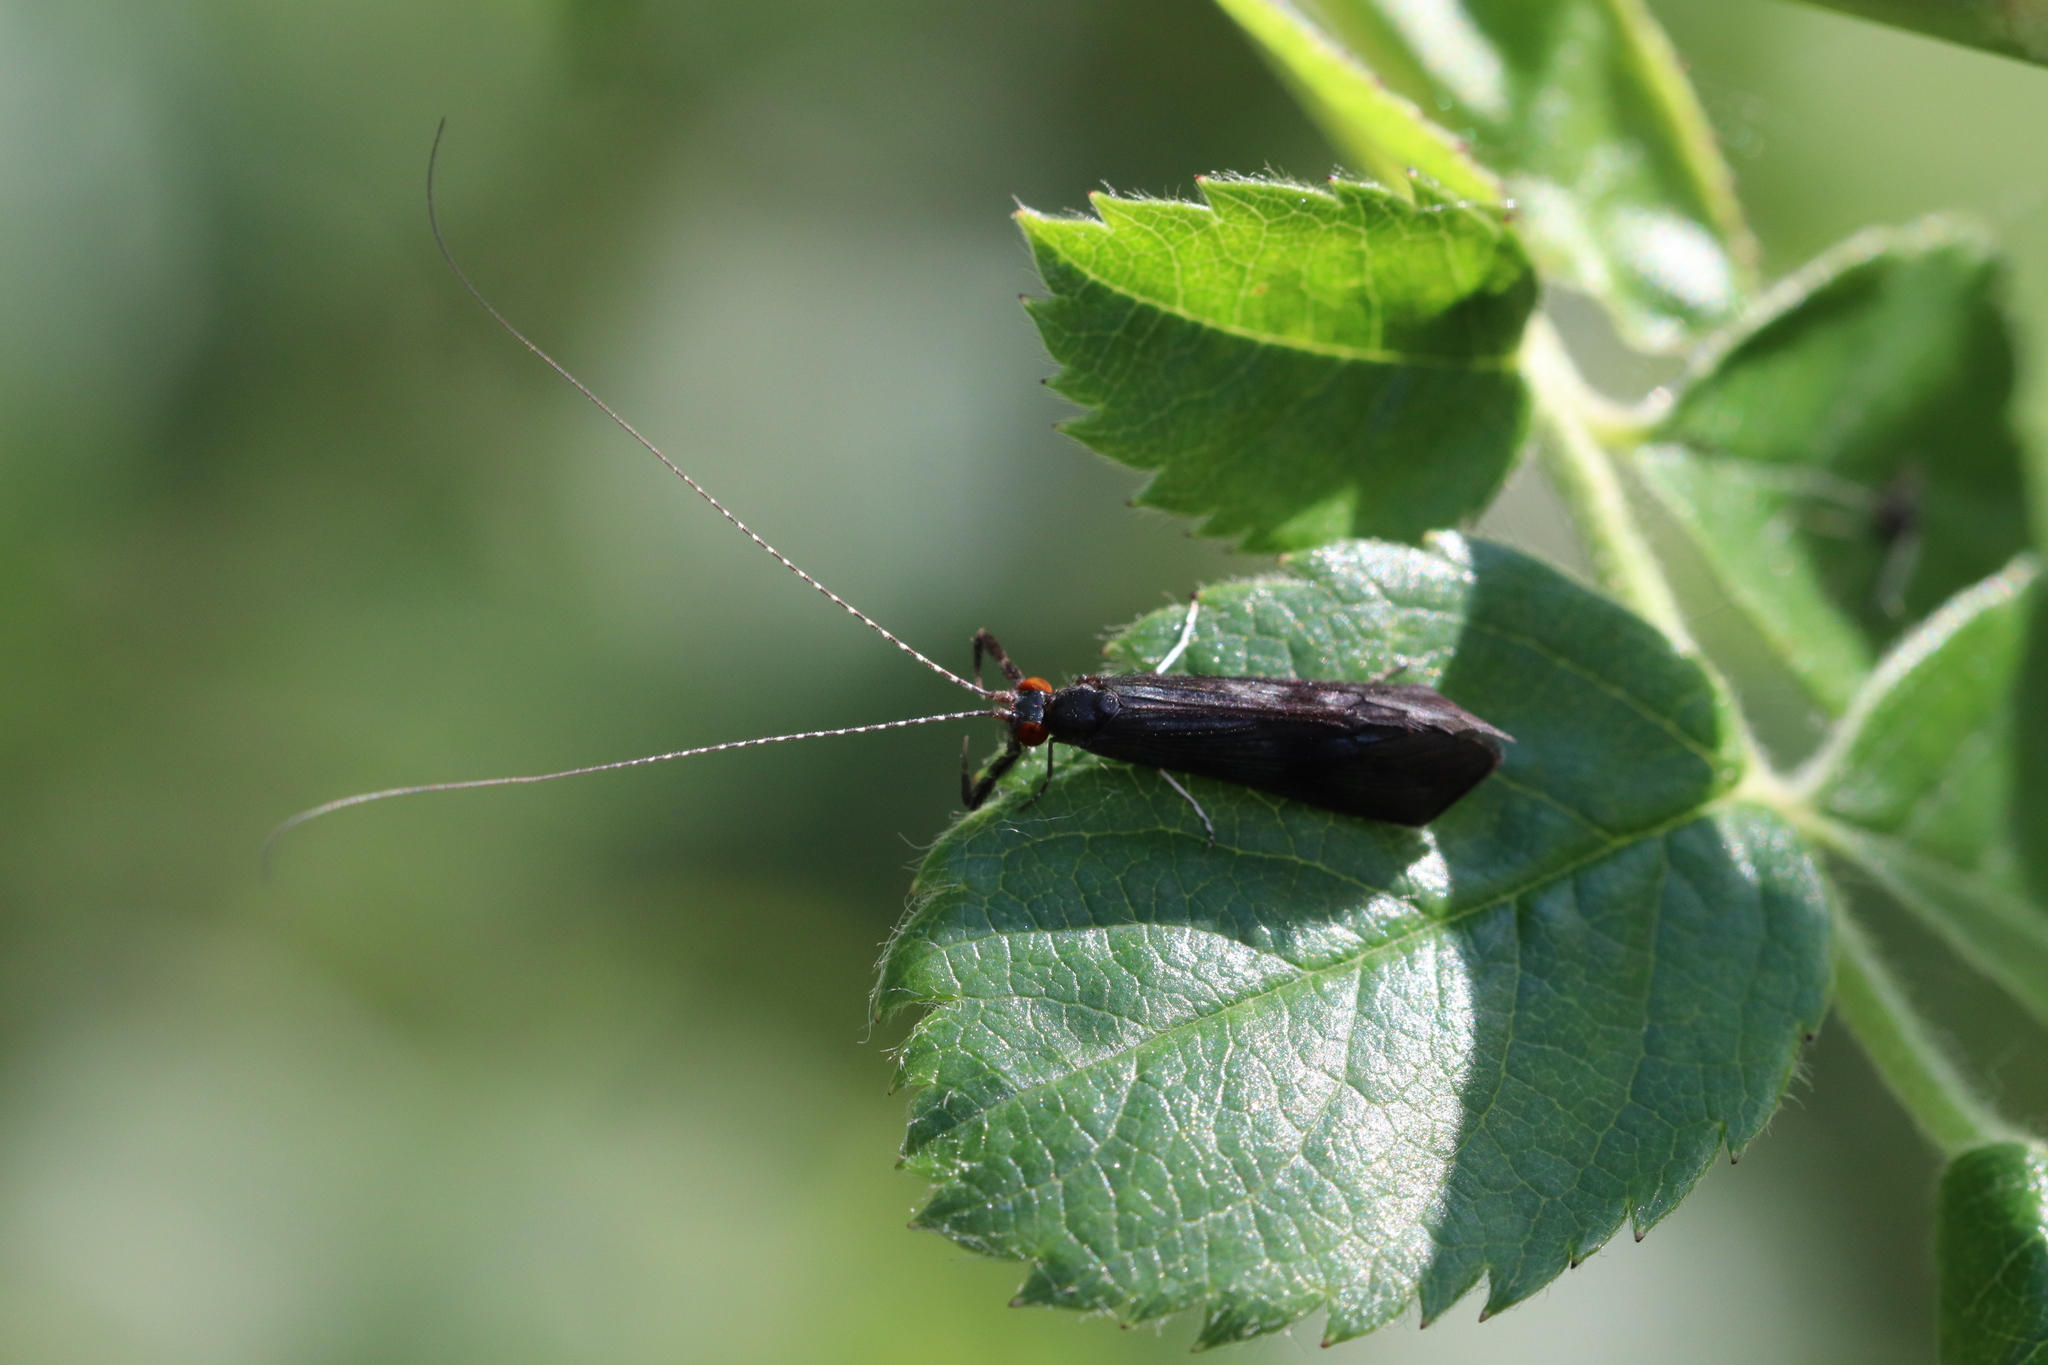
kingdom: Animalia
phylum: Arthropoda
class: Insecta
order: Trichoptera
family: Leptoceridae
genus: Mystacides
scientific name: Mystacides azureus
